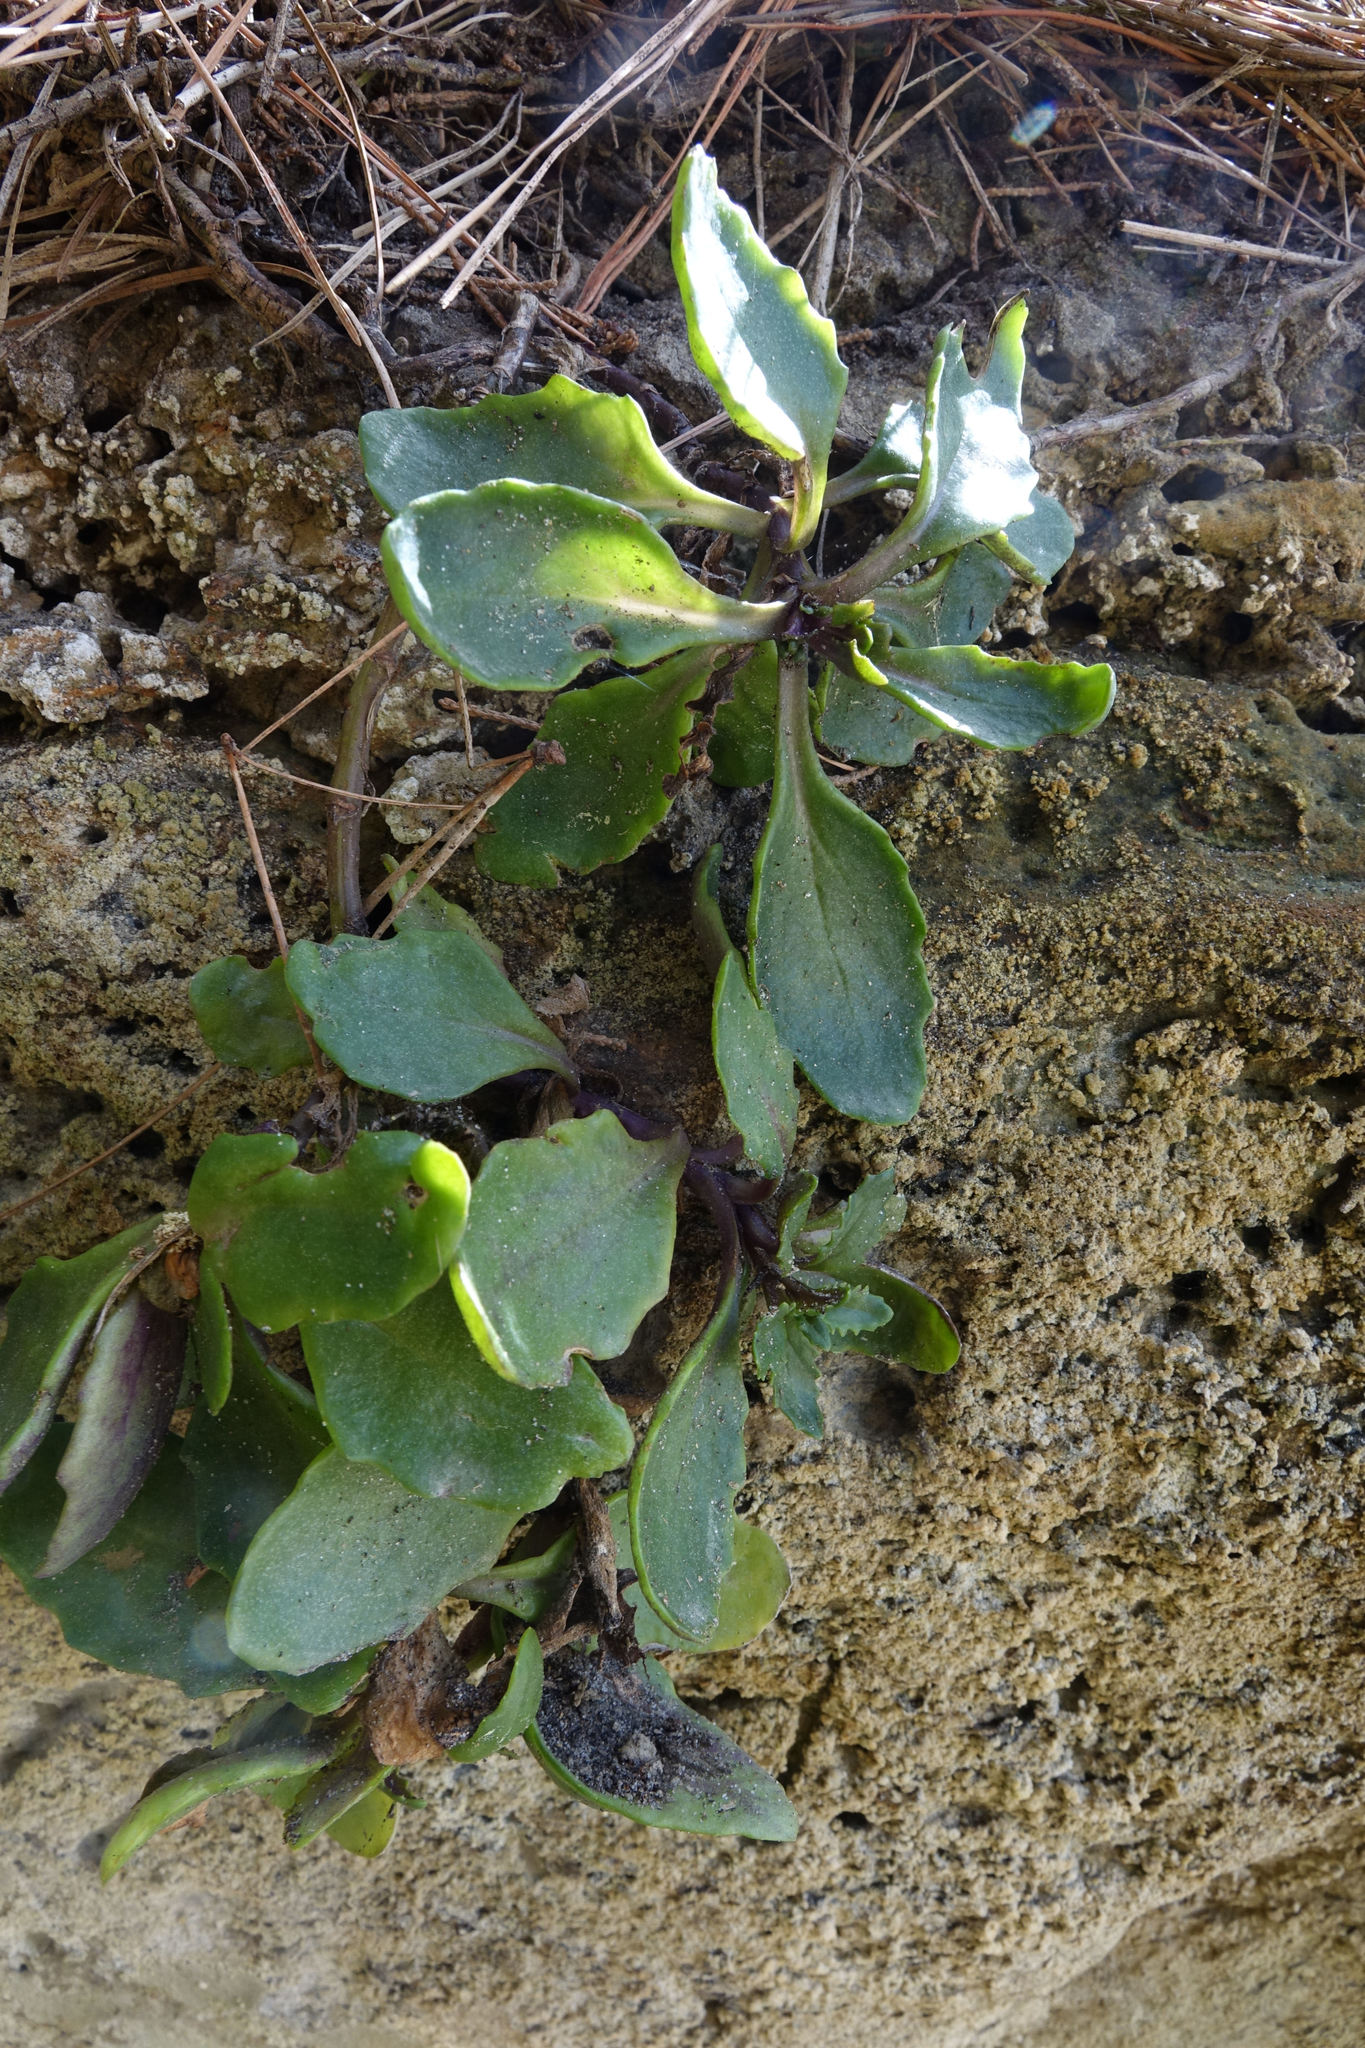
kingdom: Plantae
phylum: Tracheophyta
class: Magnoliopsida
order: Asterales
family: Asteraceae
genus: Senecio
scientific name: Senecio matatini
